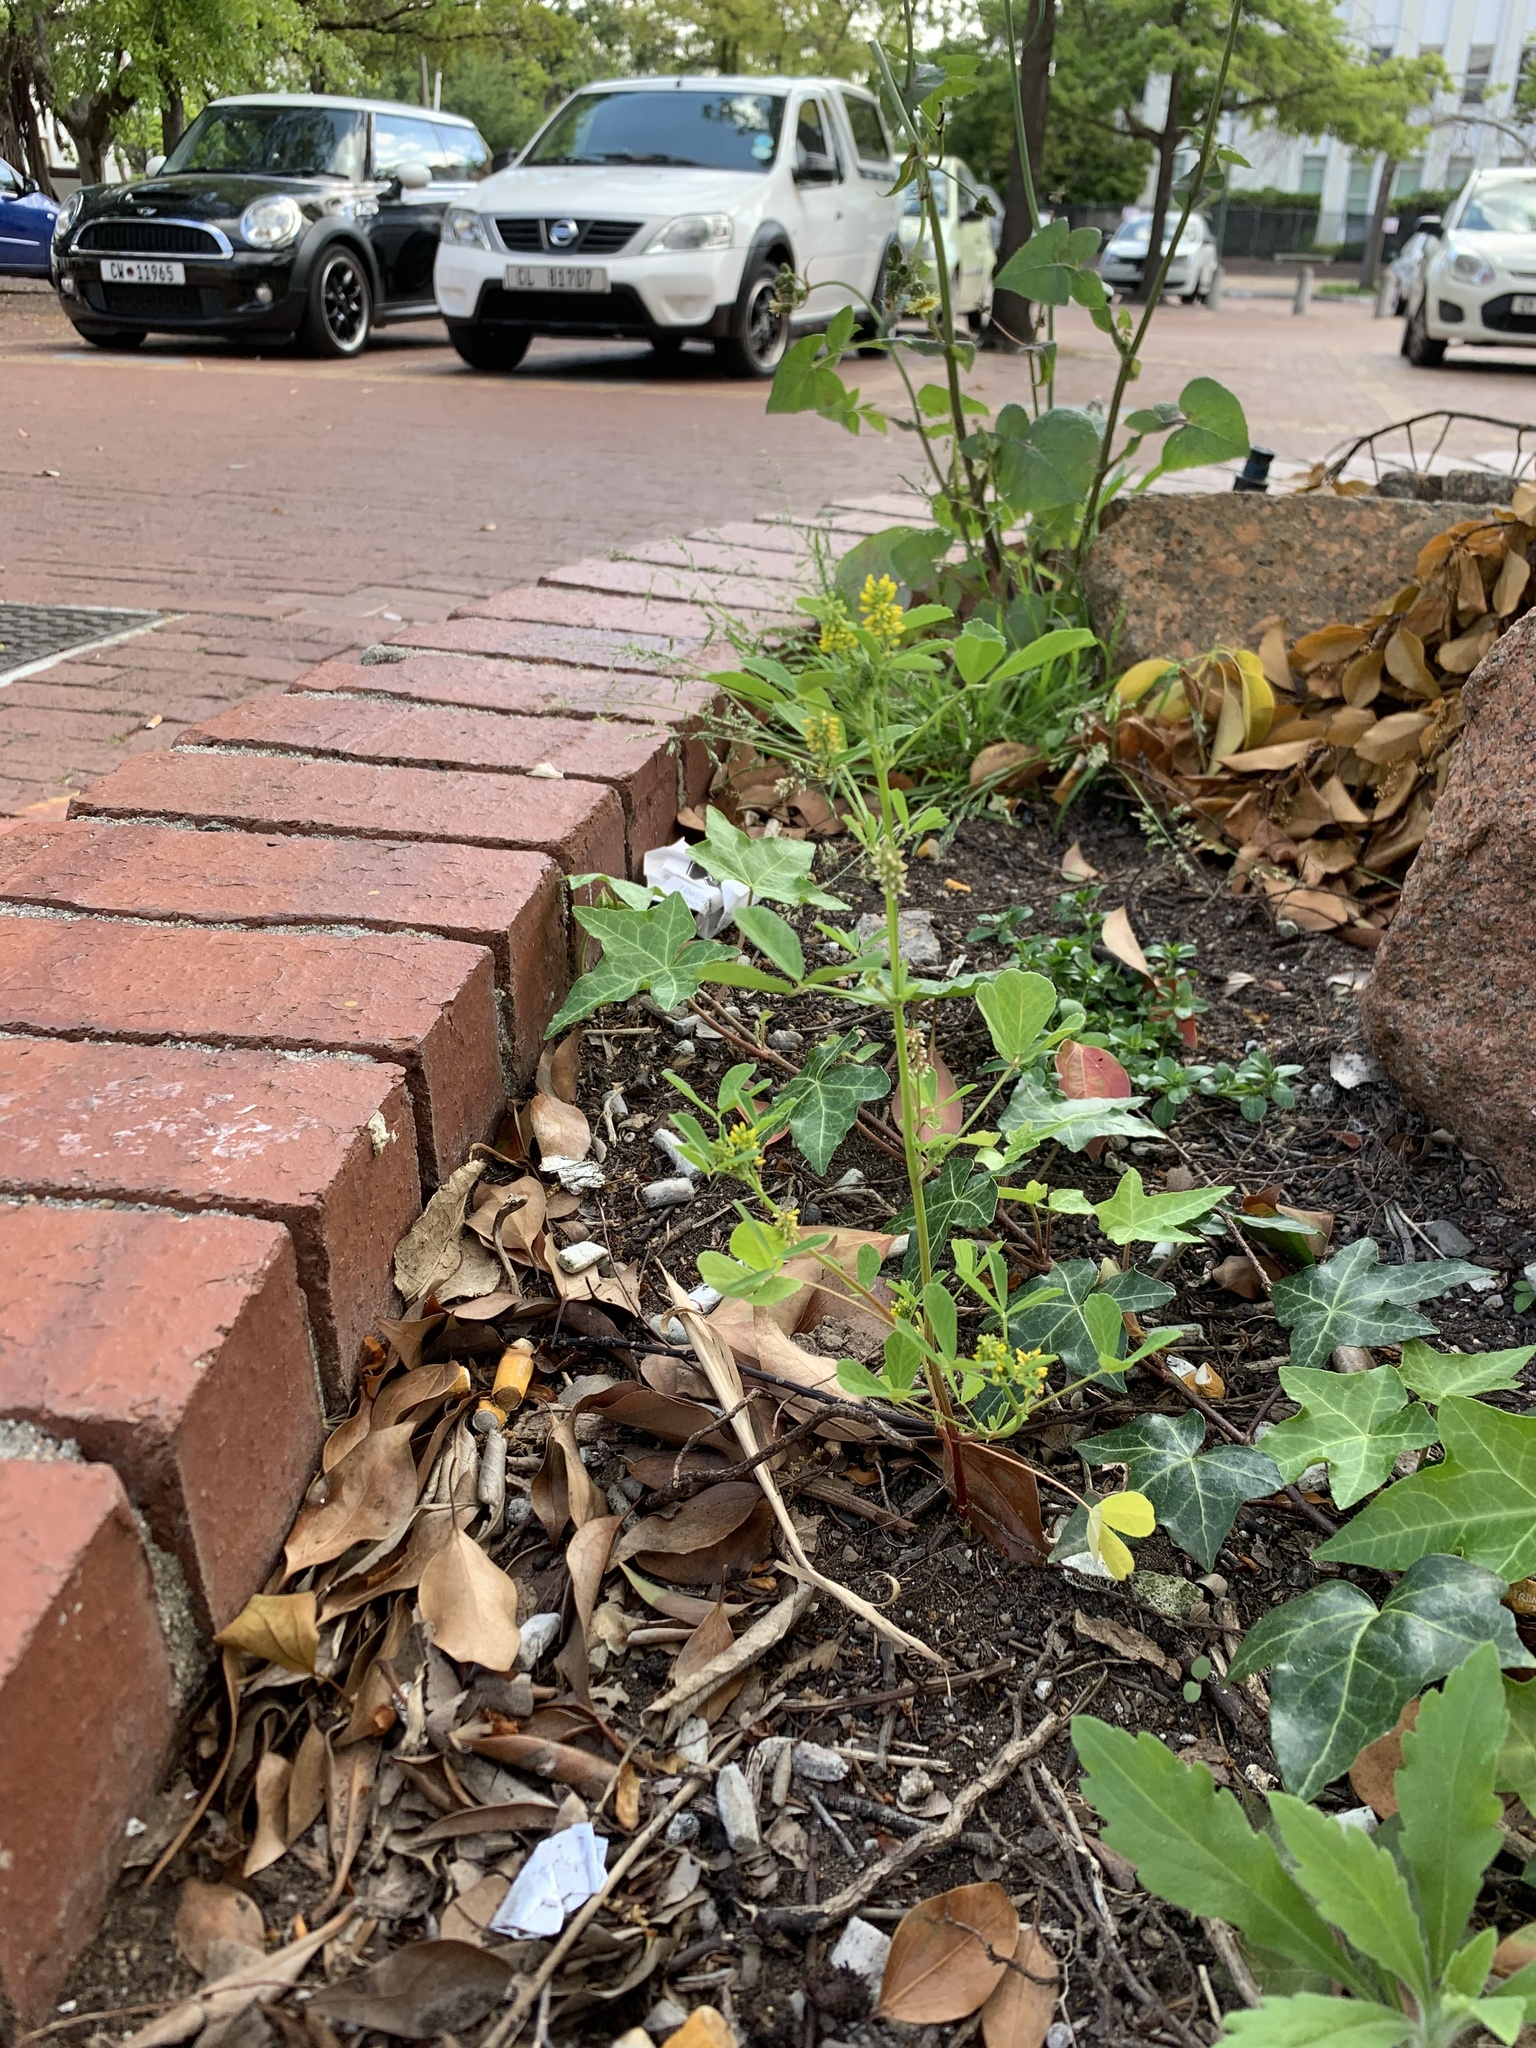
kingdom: Plantae
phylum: Tracheophyta
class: Magnoliopsida
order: Fabales
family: Fabaceae
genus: Melilotus
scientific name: Melilotus indicus
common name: Small melilot
